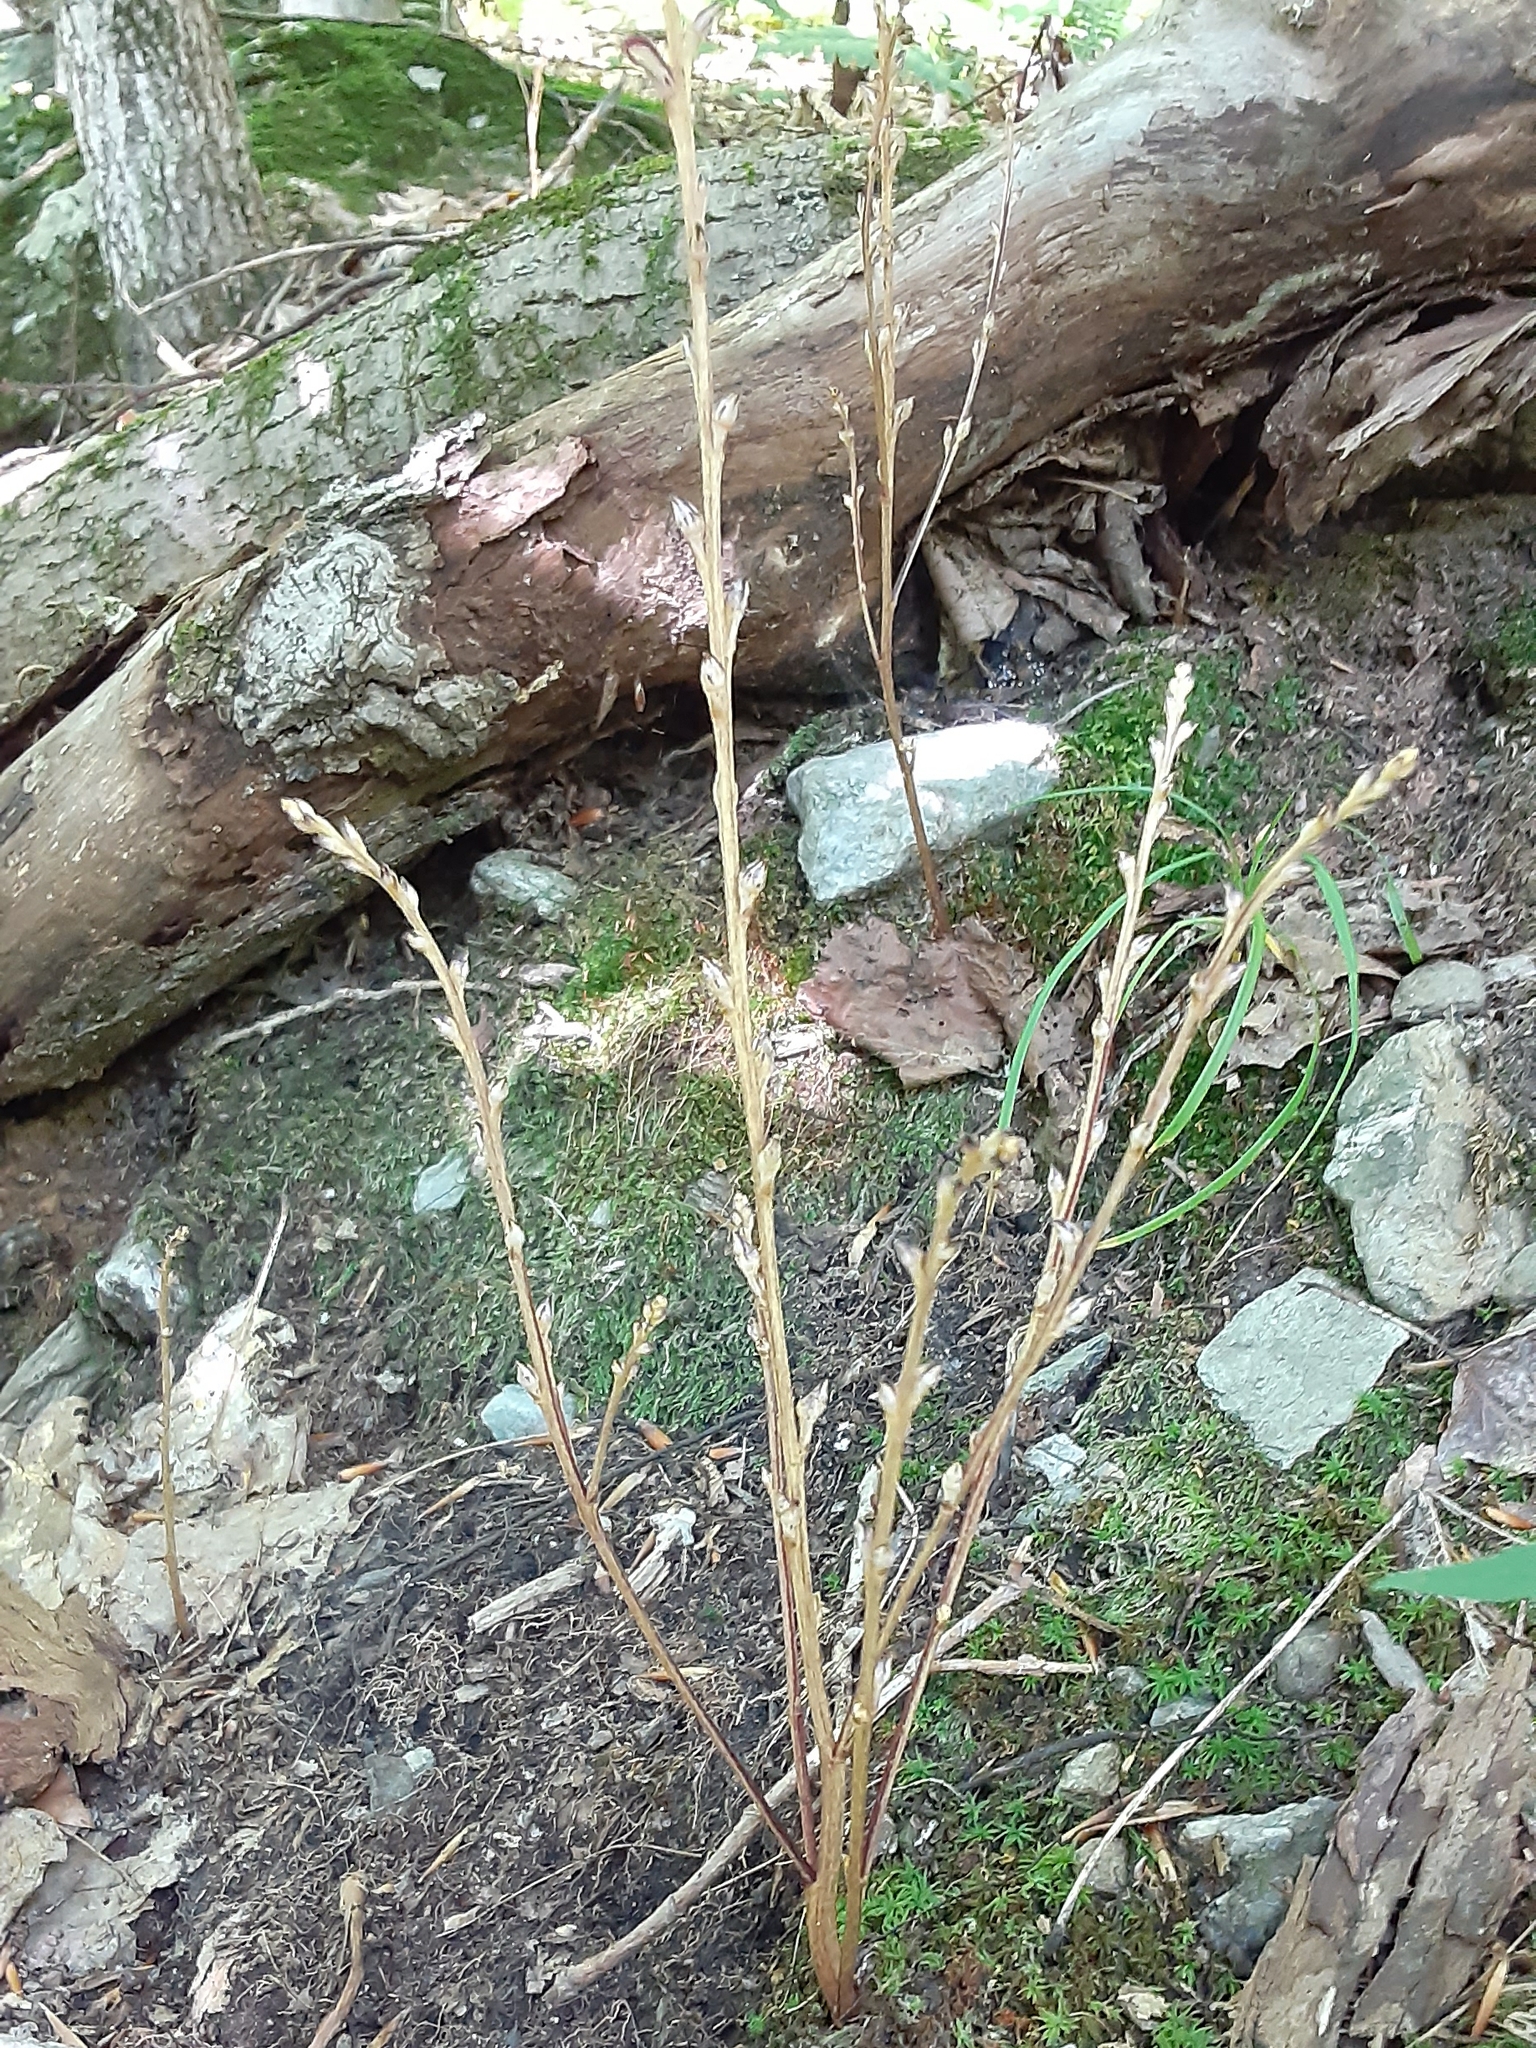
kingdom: Plantae
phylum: Tracheophyta
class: Magnoliopsida
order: Lamiales
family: Orobanchaceae
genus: Epifagus
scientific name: Epifagus virginiana
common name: Beechdrops
